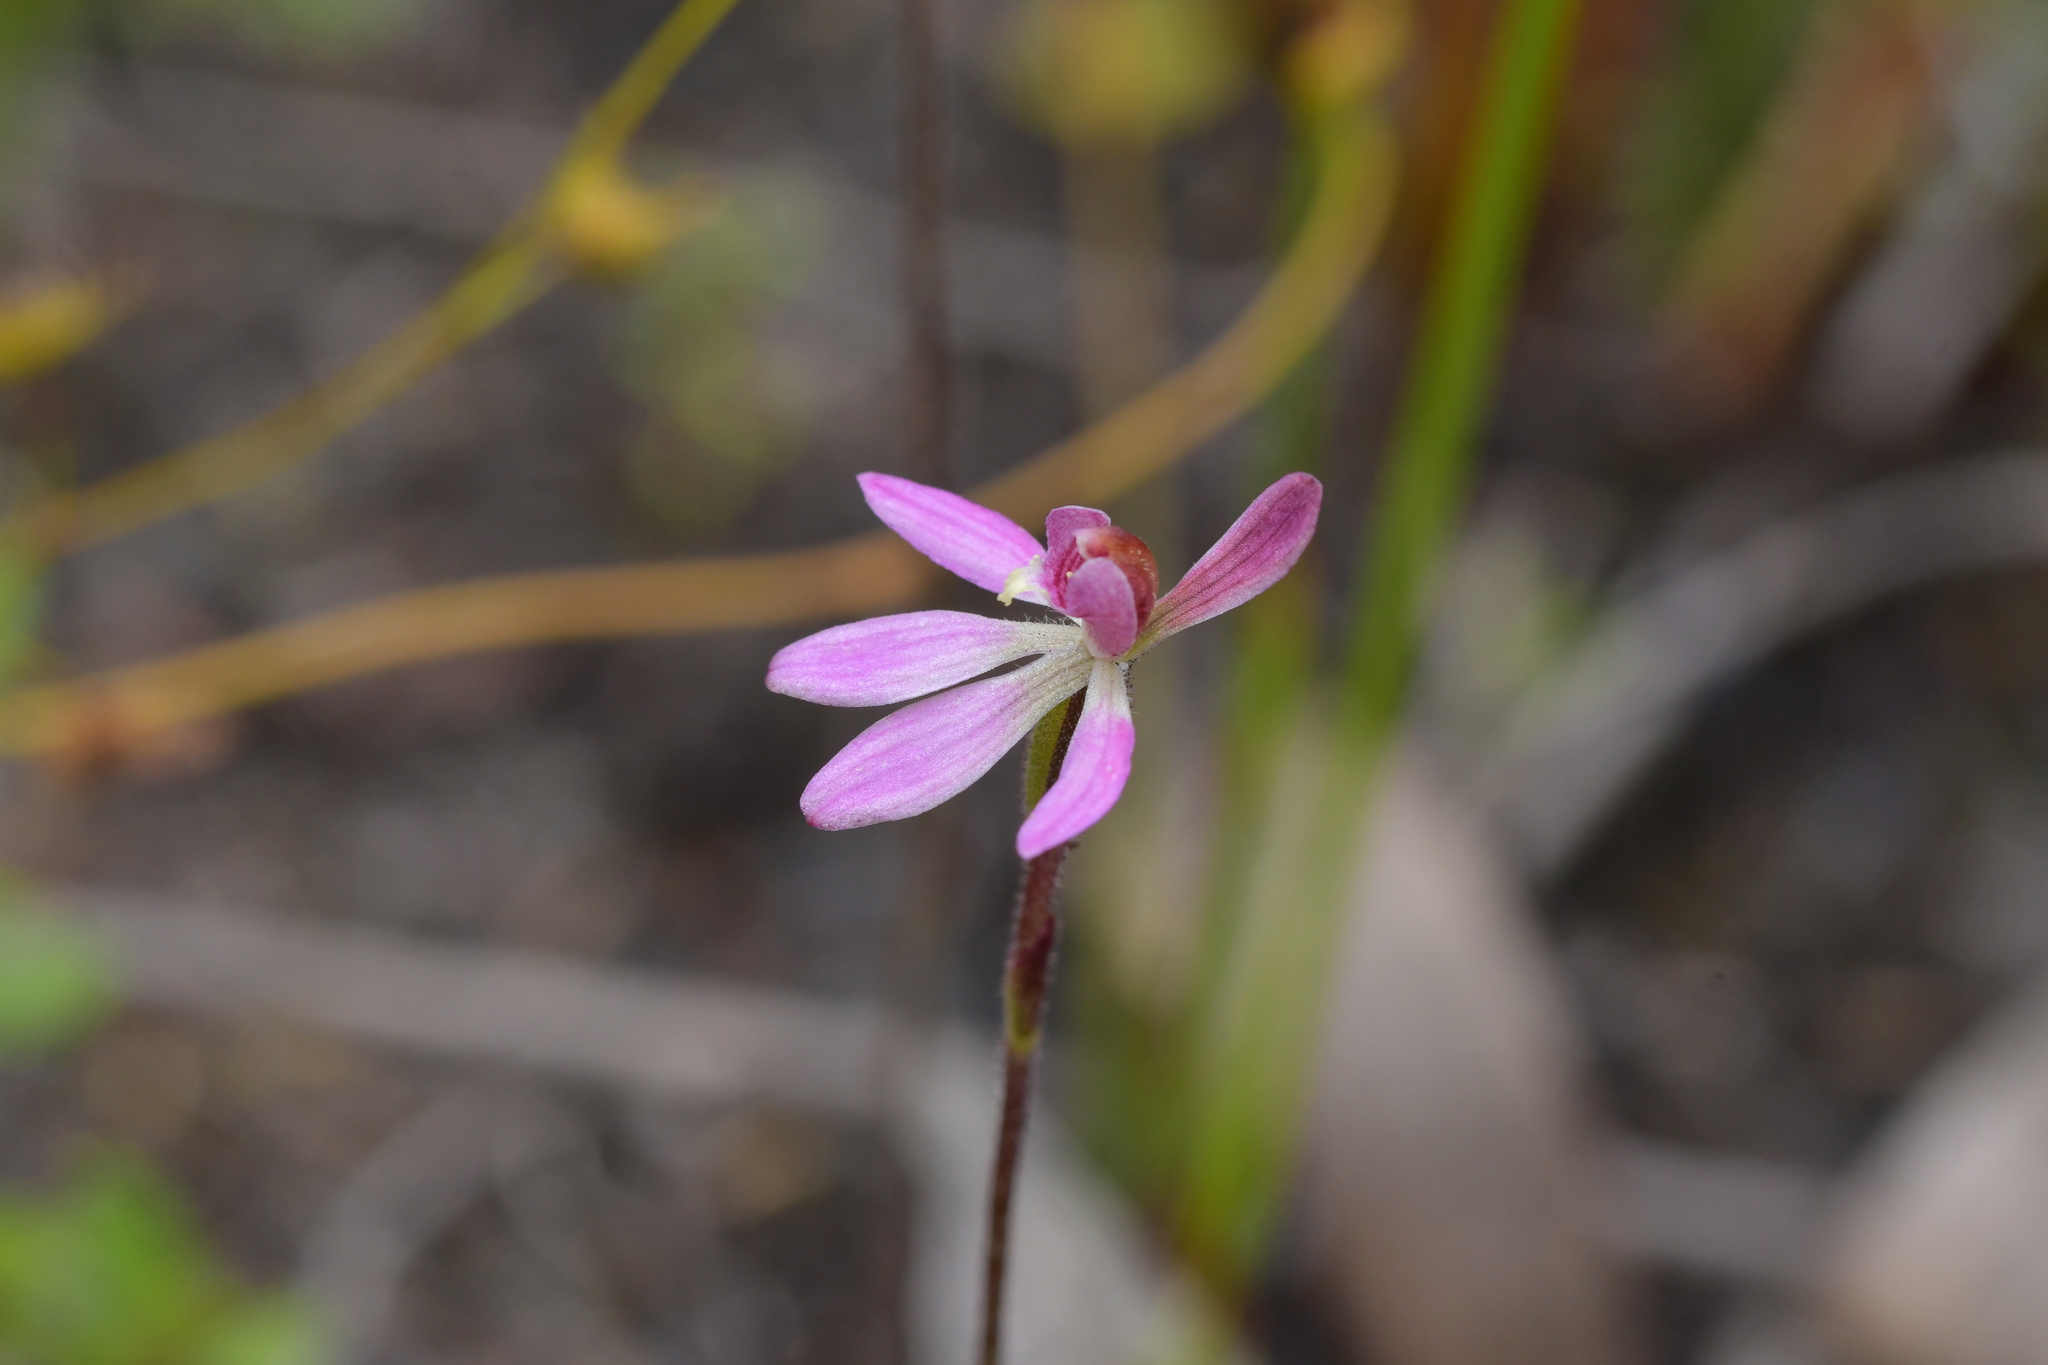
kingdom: Plantae
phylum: Tracheophyta
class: Liliopsida
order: Asparagales
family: Orchidaceae
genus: Caladenia
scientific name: Caladenia minor
